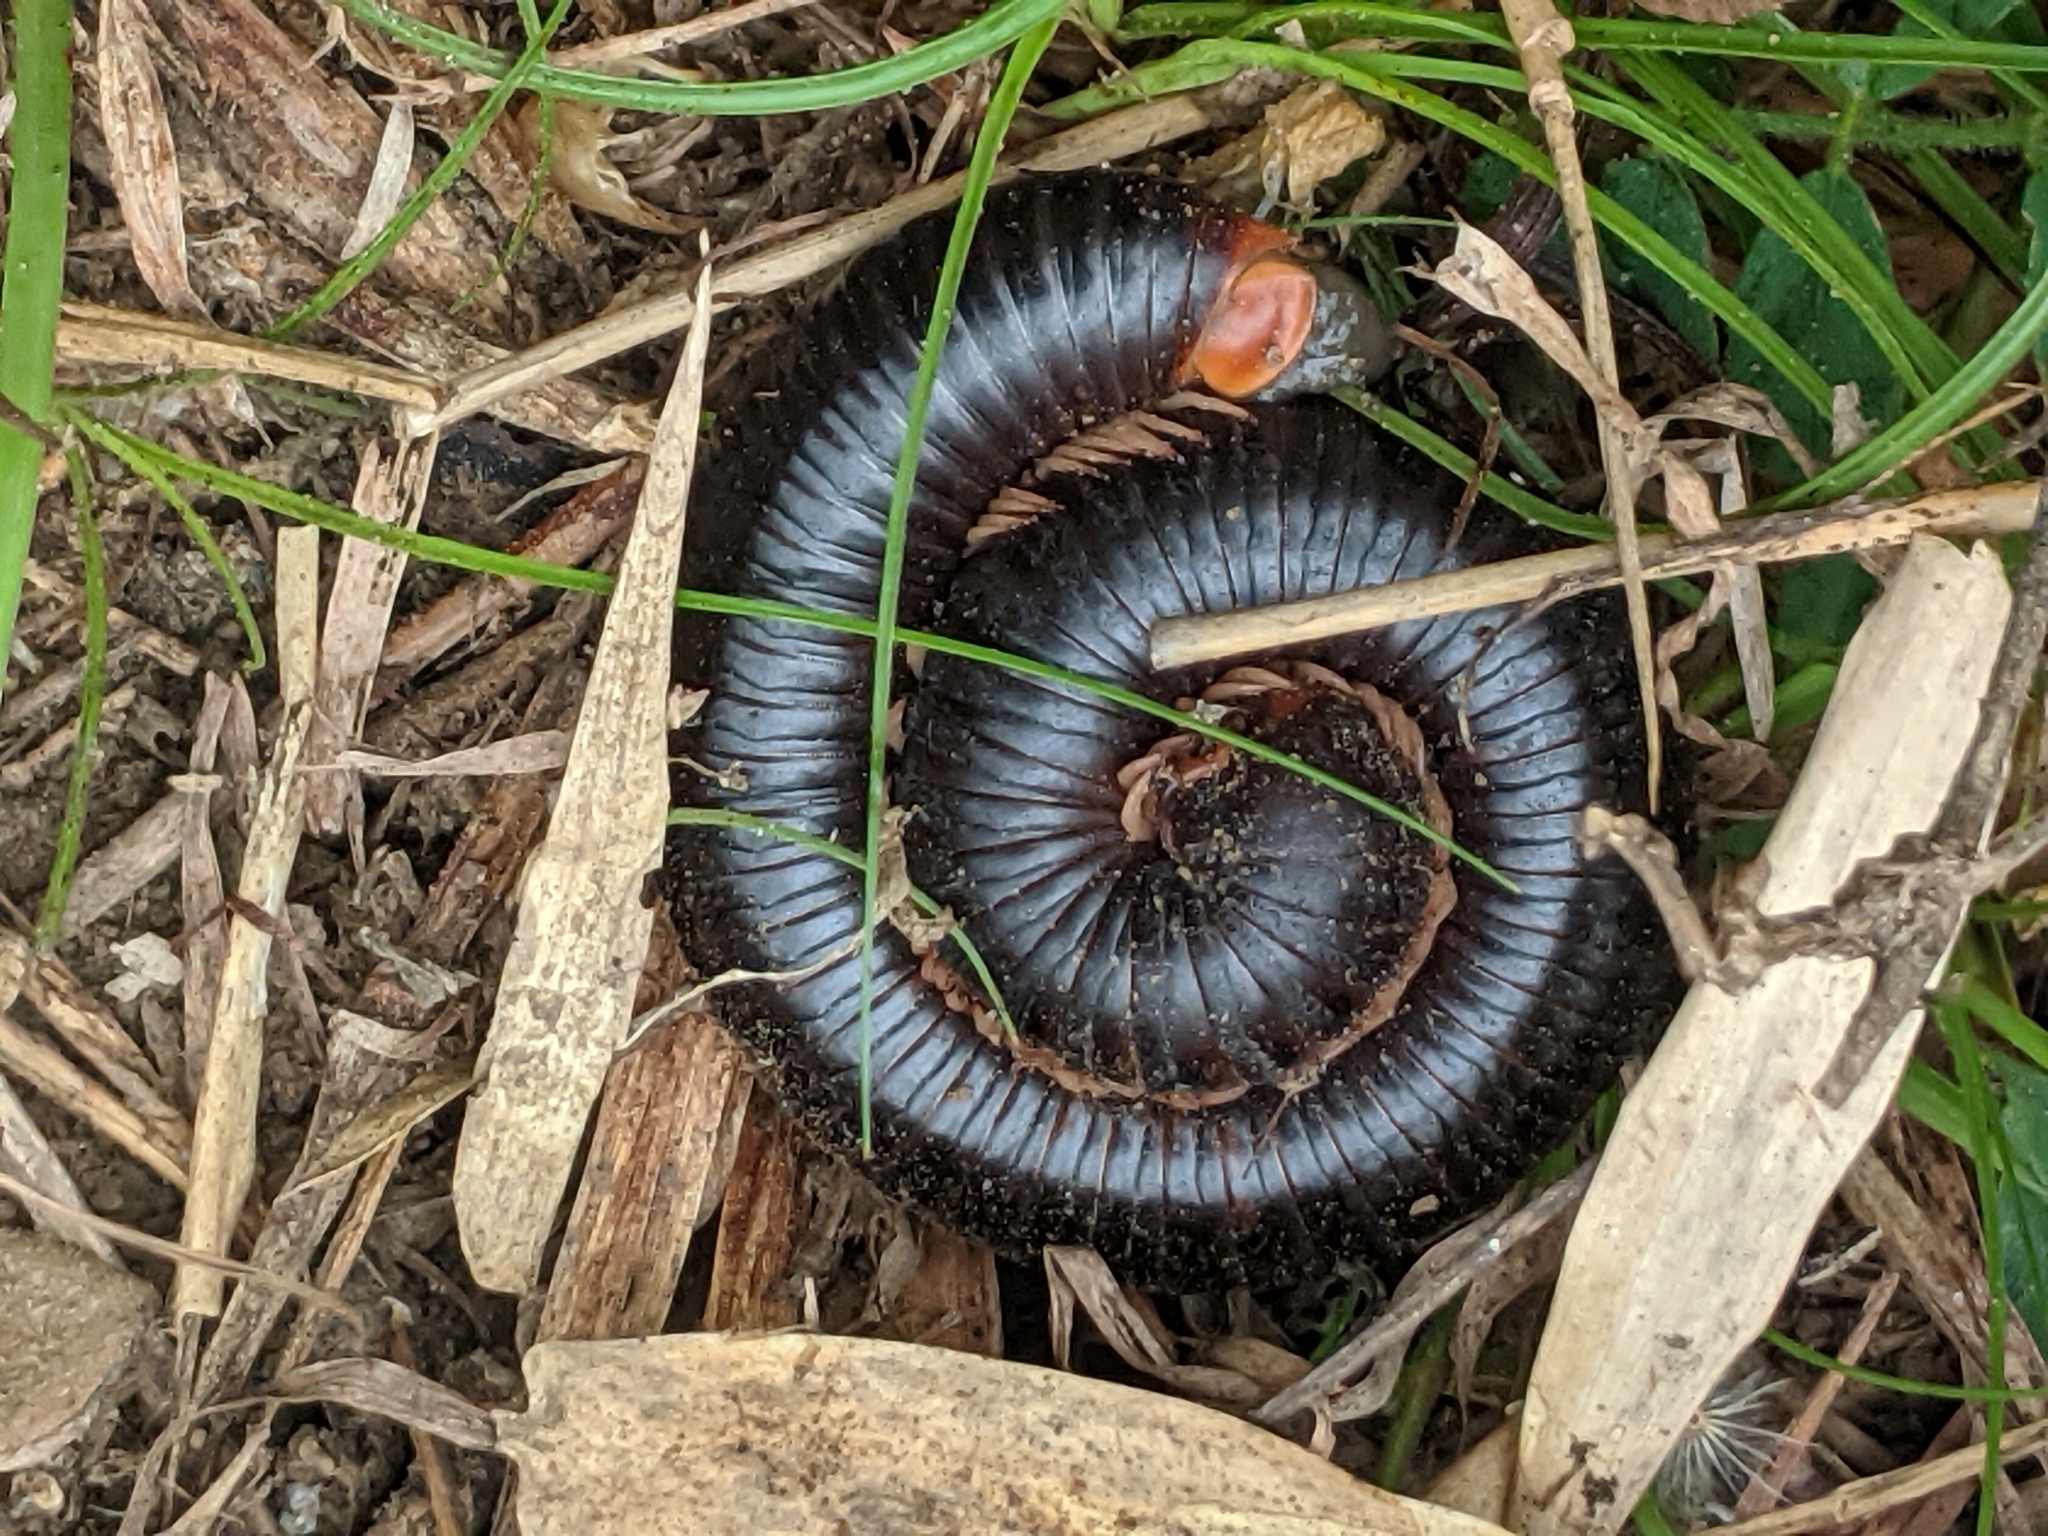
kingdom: Animalia
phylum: Arthropoda
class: Diplopoda
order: Spirostreptida
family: Harpagophoridae
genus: Phyllogonostreptus
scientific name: Phyllogonostreptus nigrolabiatus
